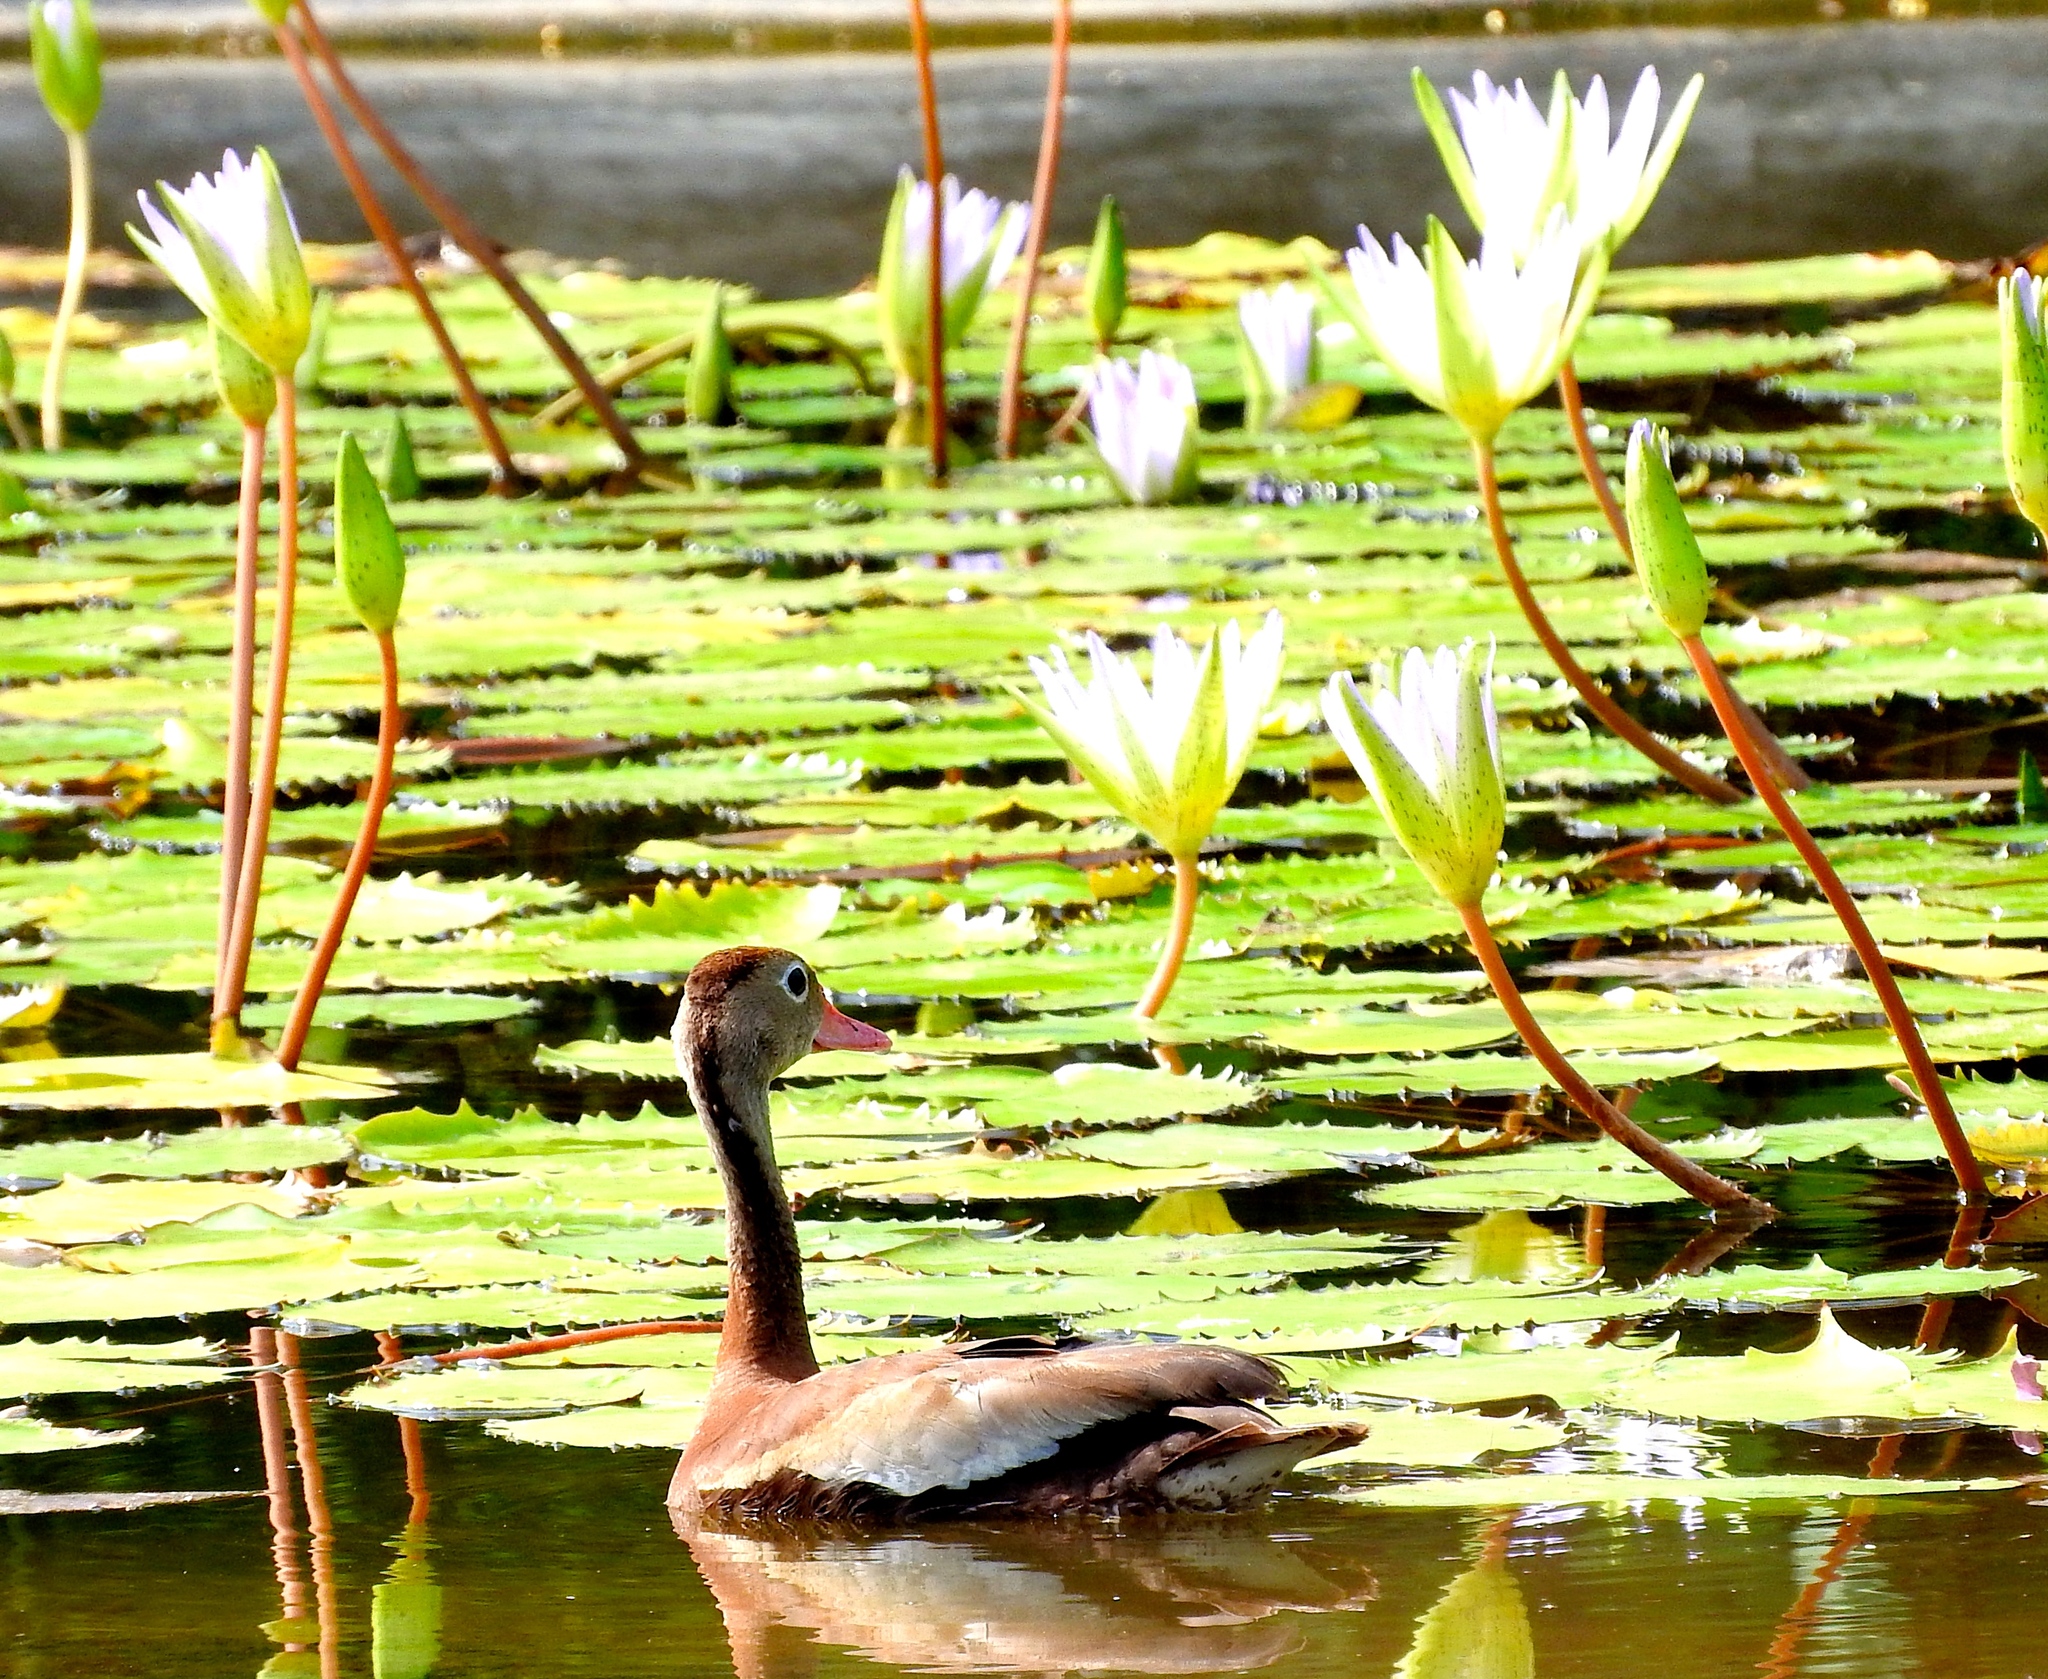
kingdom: Animalia
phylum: Chordata
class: Aves
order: Anseriformes
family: Anatidae
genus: Dendrocygna
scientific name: Dendrocygna autumnalis
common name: Black-bellied whistling duck
